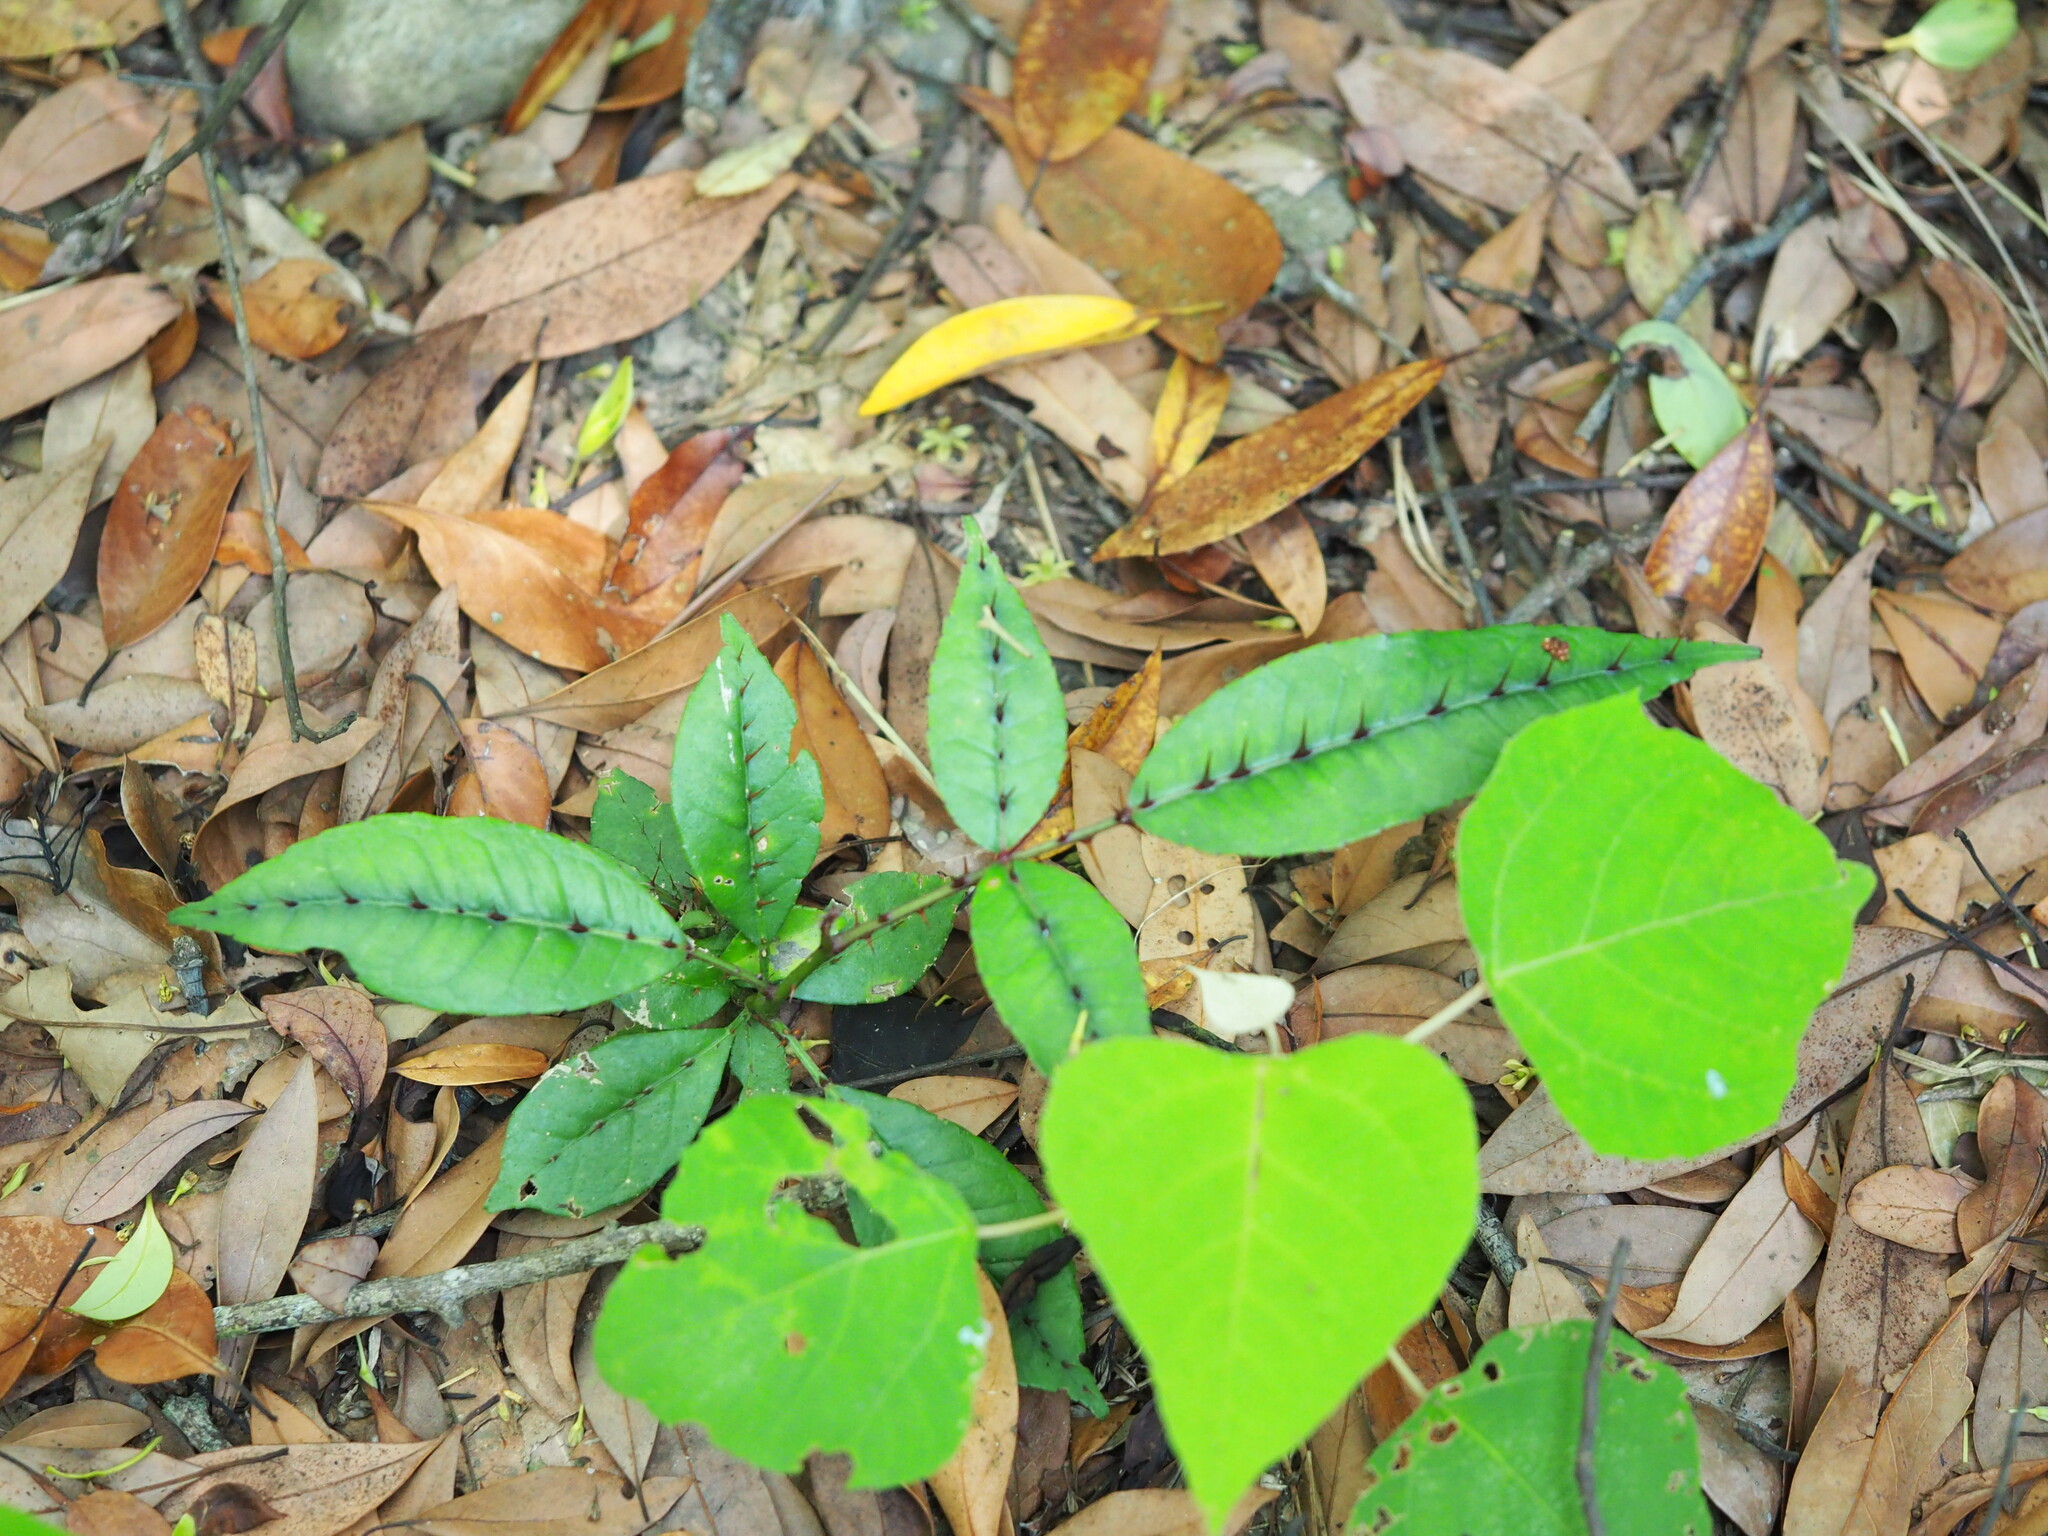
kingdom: Plantae
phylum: Tracheophyta
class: Magnoliopsida
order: Sapindales
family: Rutaceae
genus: Zanthoxylum
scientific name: Zanthoxylum nitidum
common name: Shiny-leaf prickly-ash
